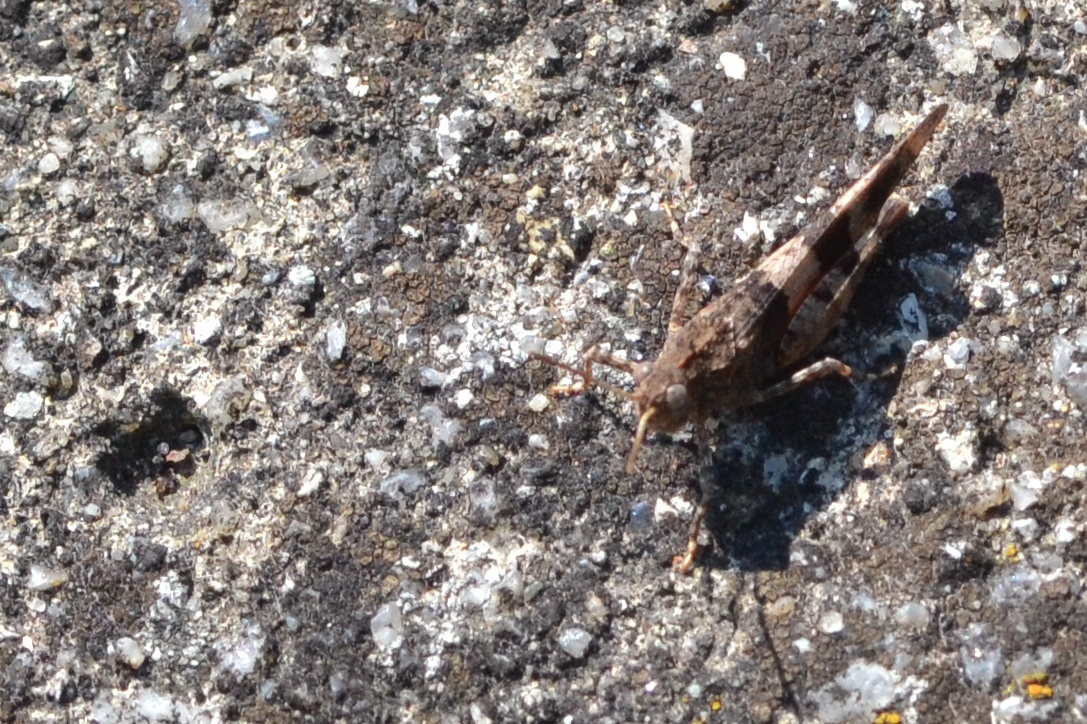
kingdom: Animalia
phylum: Arthropoda
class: Insecta
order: Orthoptera
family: Acrididae
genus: Oedipoda
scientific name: Oedipoda caerulescens
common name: Blue-winged grasshopper
